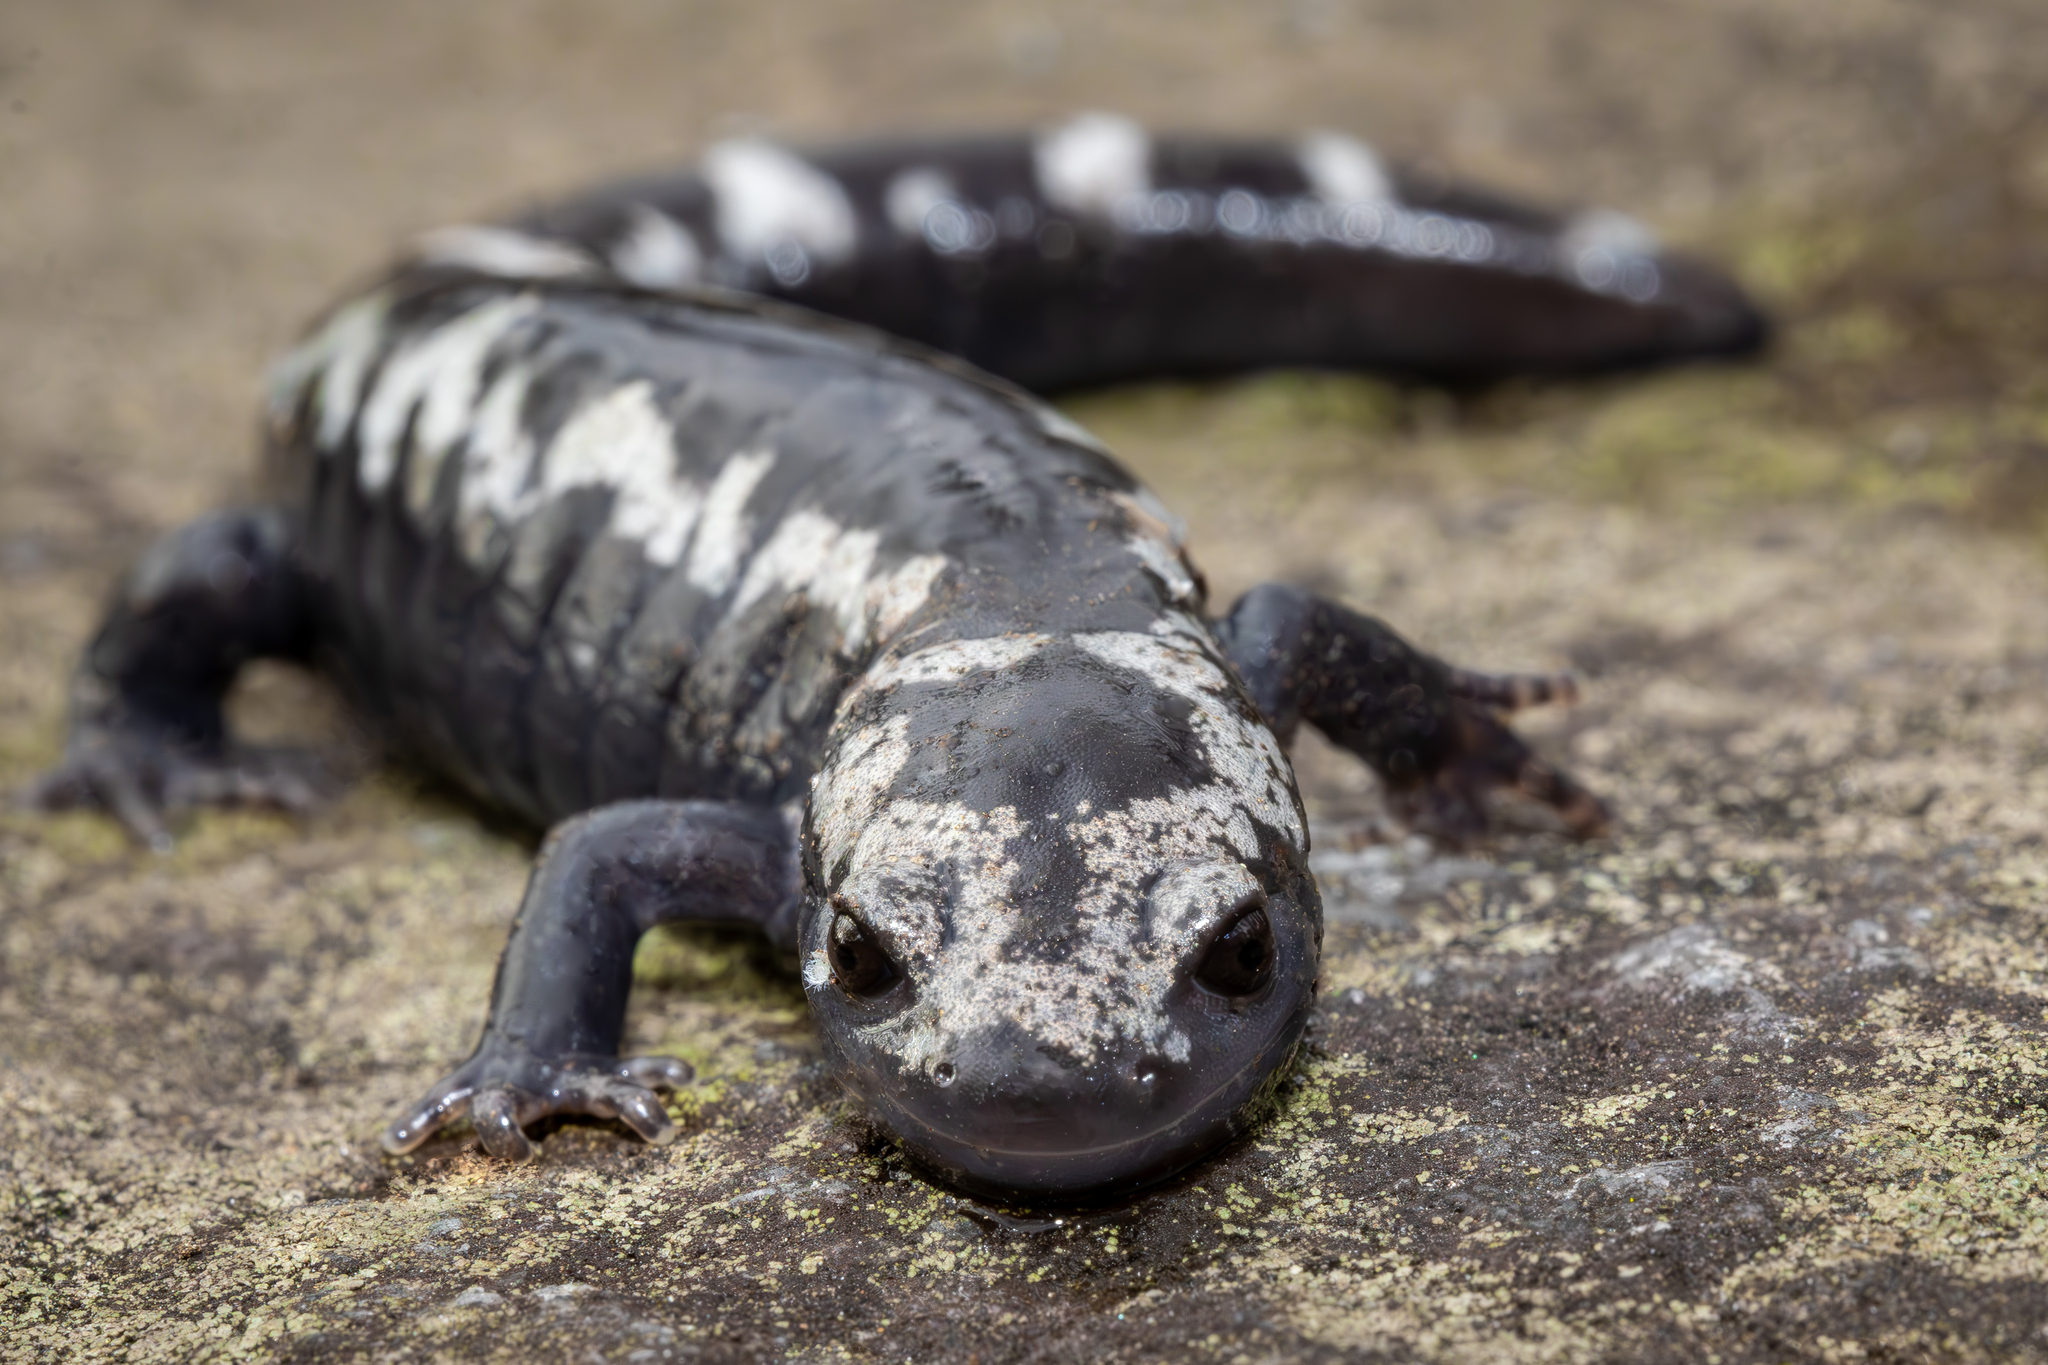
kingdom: Animalia
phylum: Chordata
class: Amphibia
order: Caudata
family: Ambystomatidae
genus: Ambystoma
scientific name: Ambystoma opacum
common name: Marbled salamander
